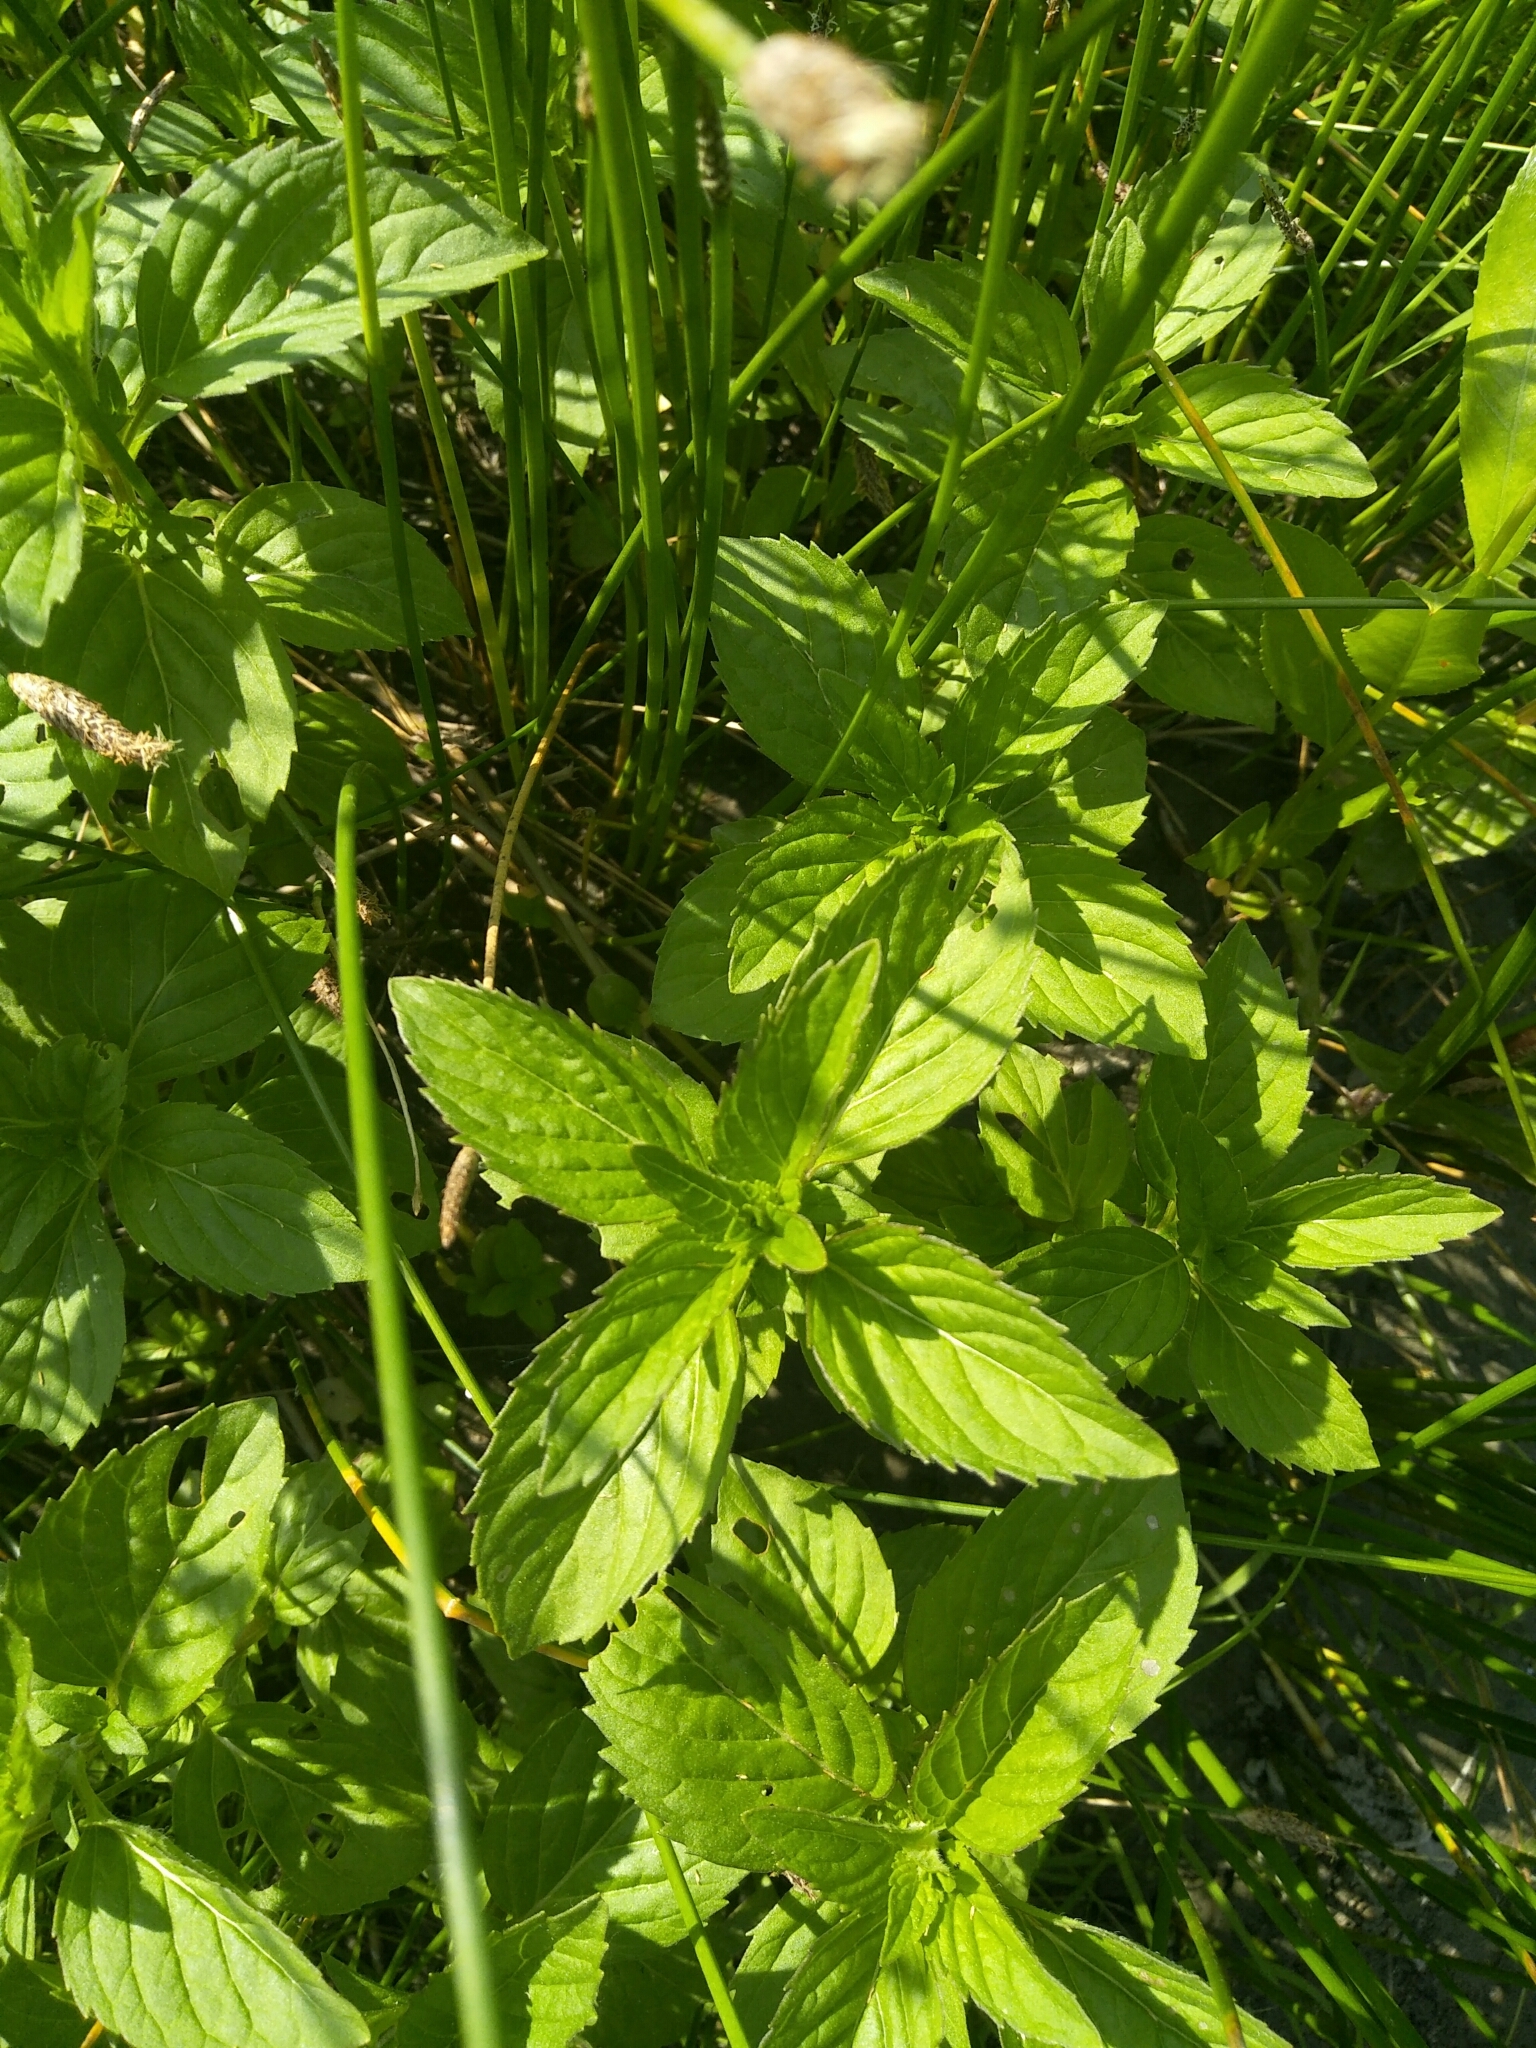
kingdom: Plantae
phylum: Tracheophyta
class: Magnoliopsida
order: Lamiales
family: Lamiaceae
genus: Mentha
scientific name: Mentha arvensis
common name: Corn mint
